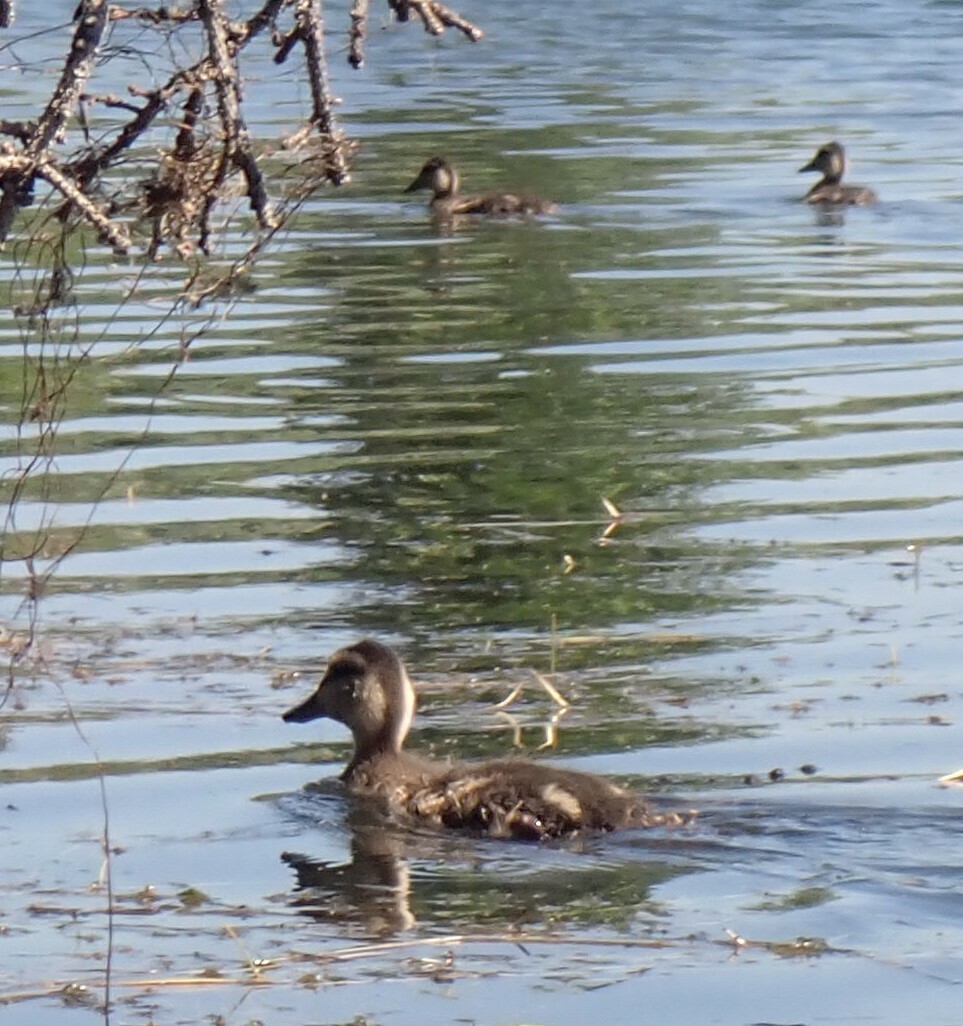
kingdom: Animalia
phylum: Chordata
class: Aves
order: Anseriformes
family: Anatidae
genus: Anas
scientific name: Anas platyrhynchos
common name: Mallard
